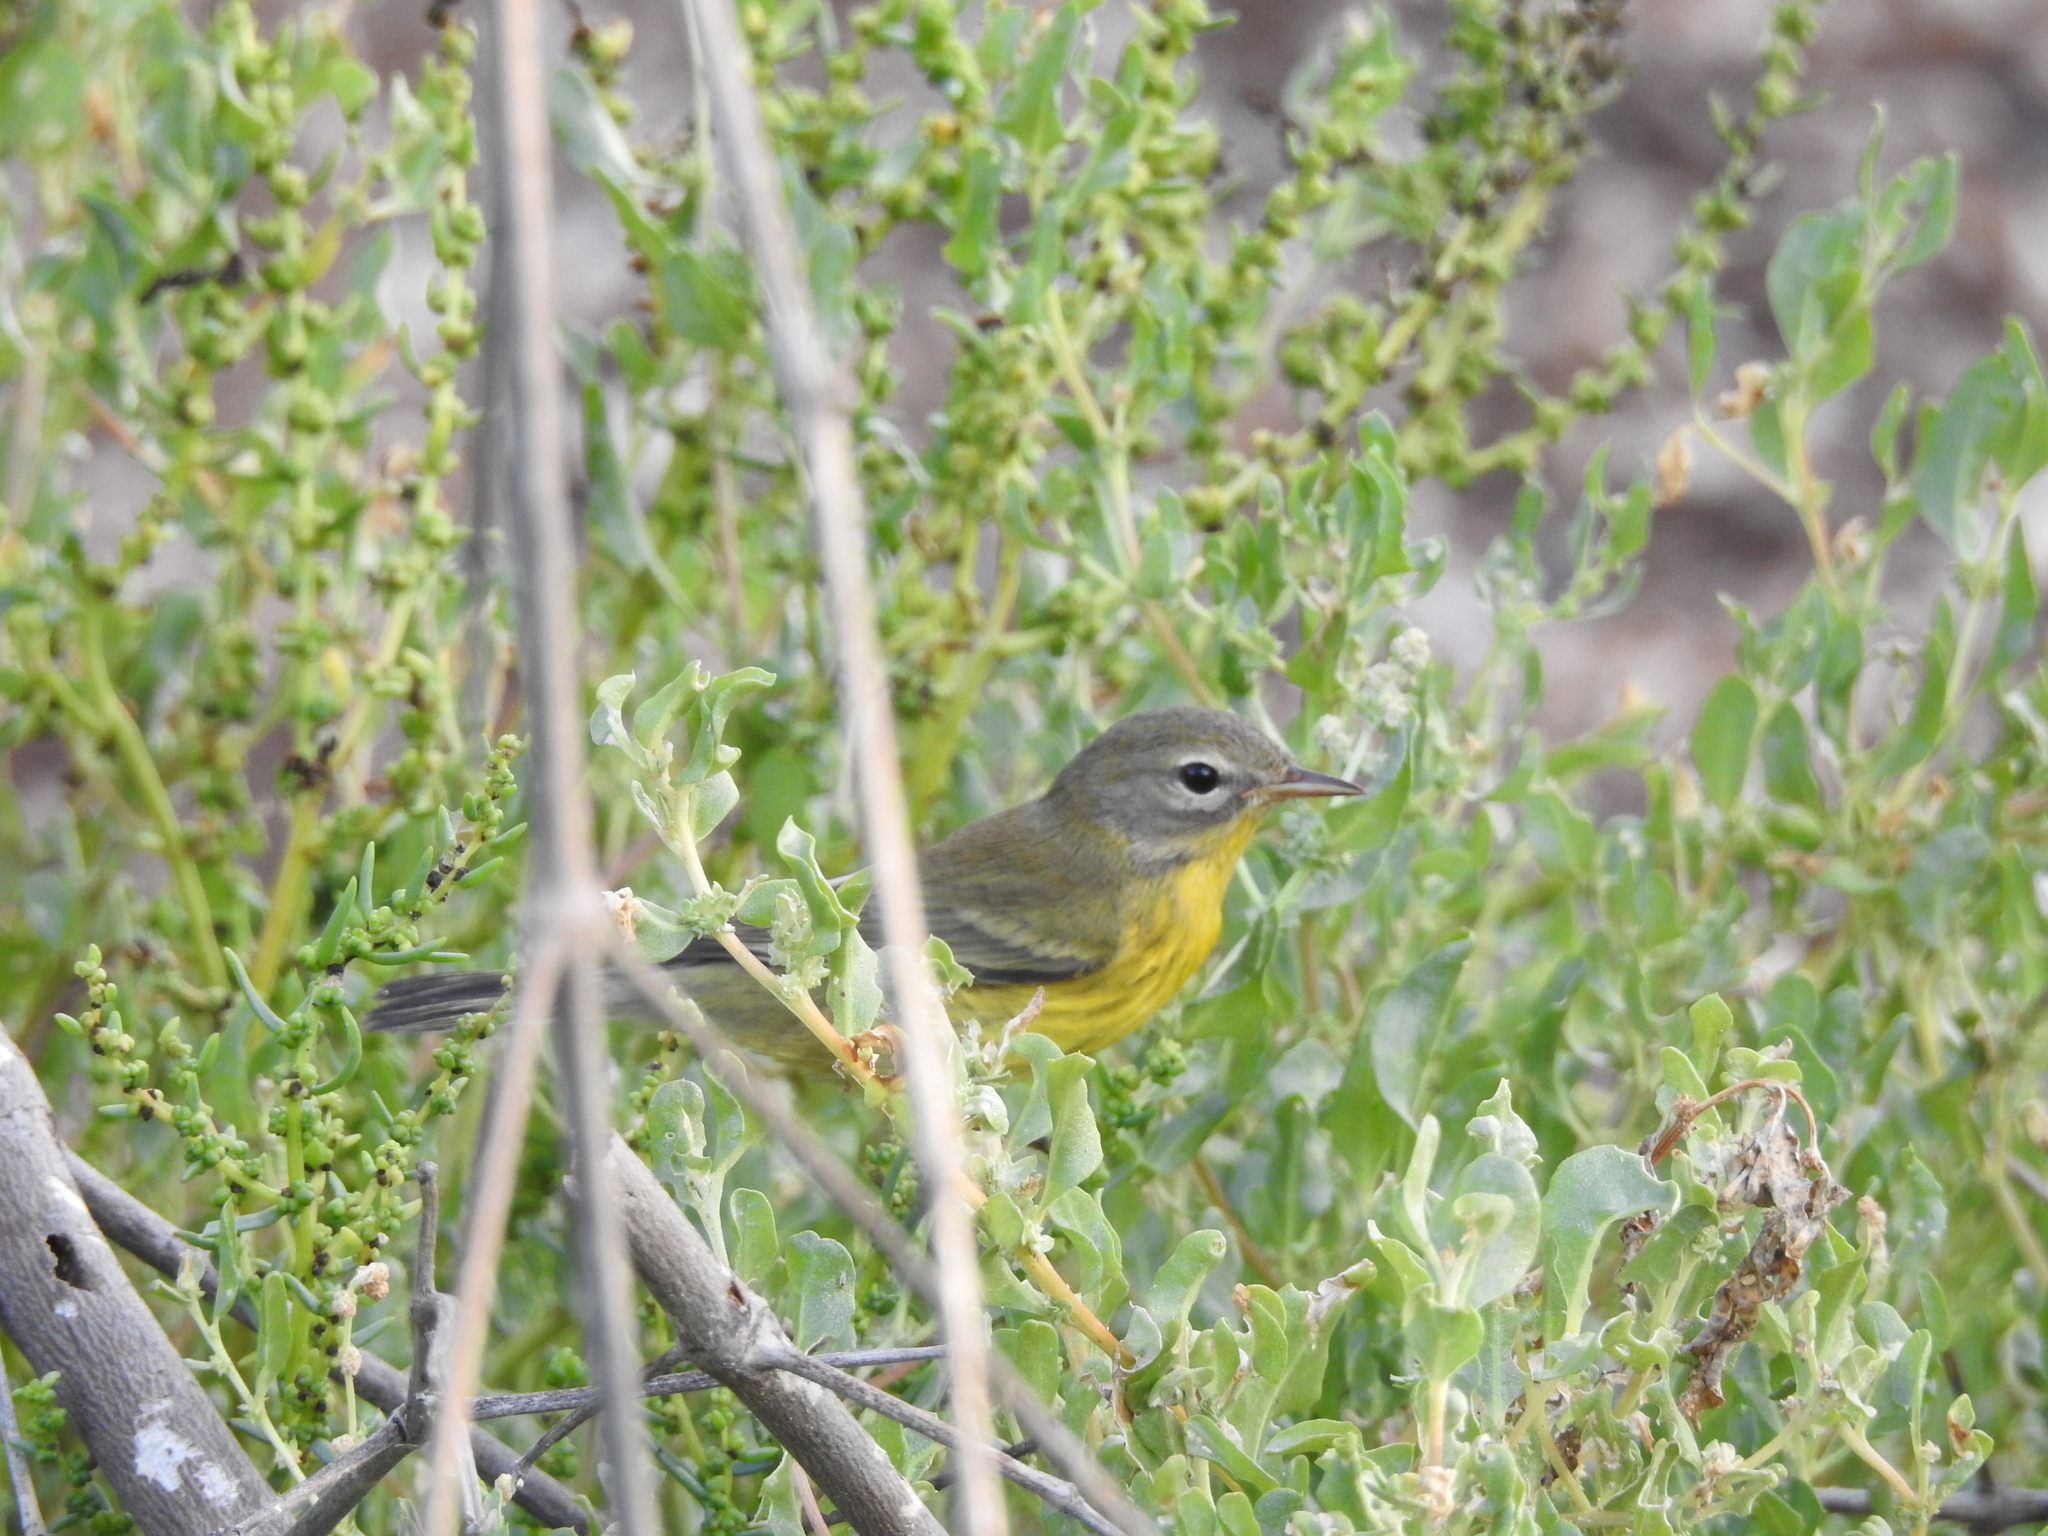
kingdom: Animalia
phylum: Chordata
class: Aves
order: Passeriformes
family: Parulidae
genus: Setophaga
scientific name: Setophaga discolor
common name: Prairie warbler
